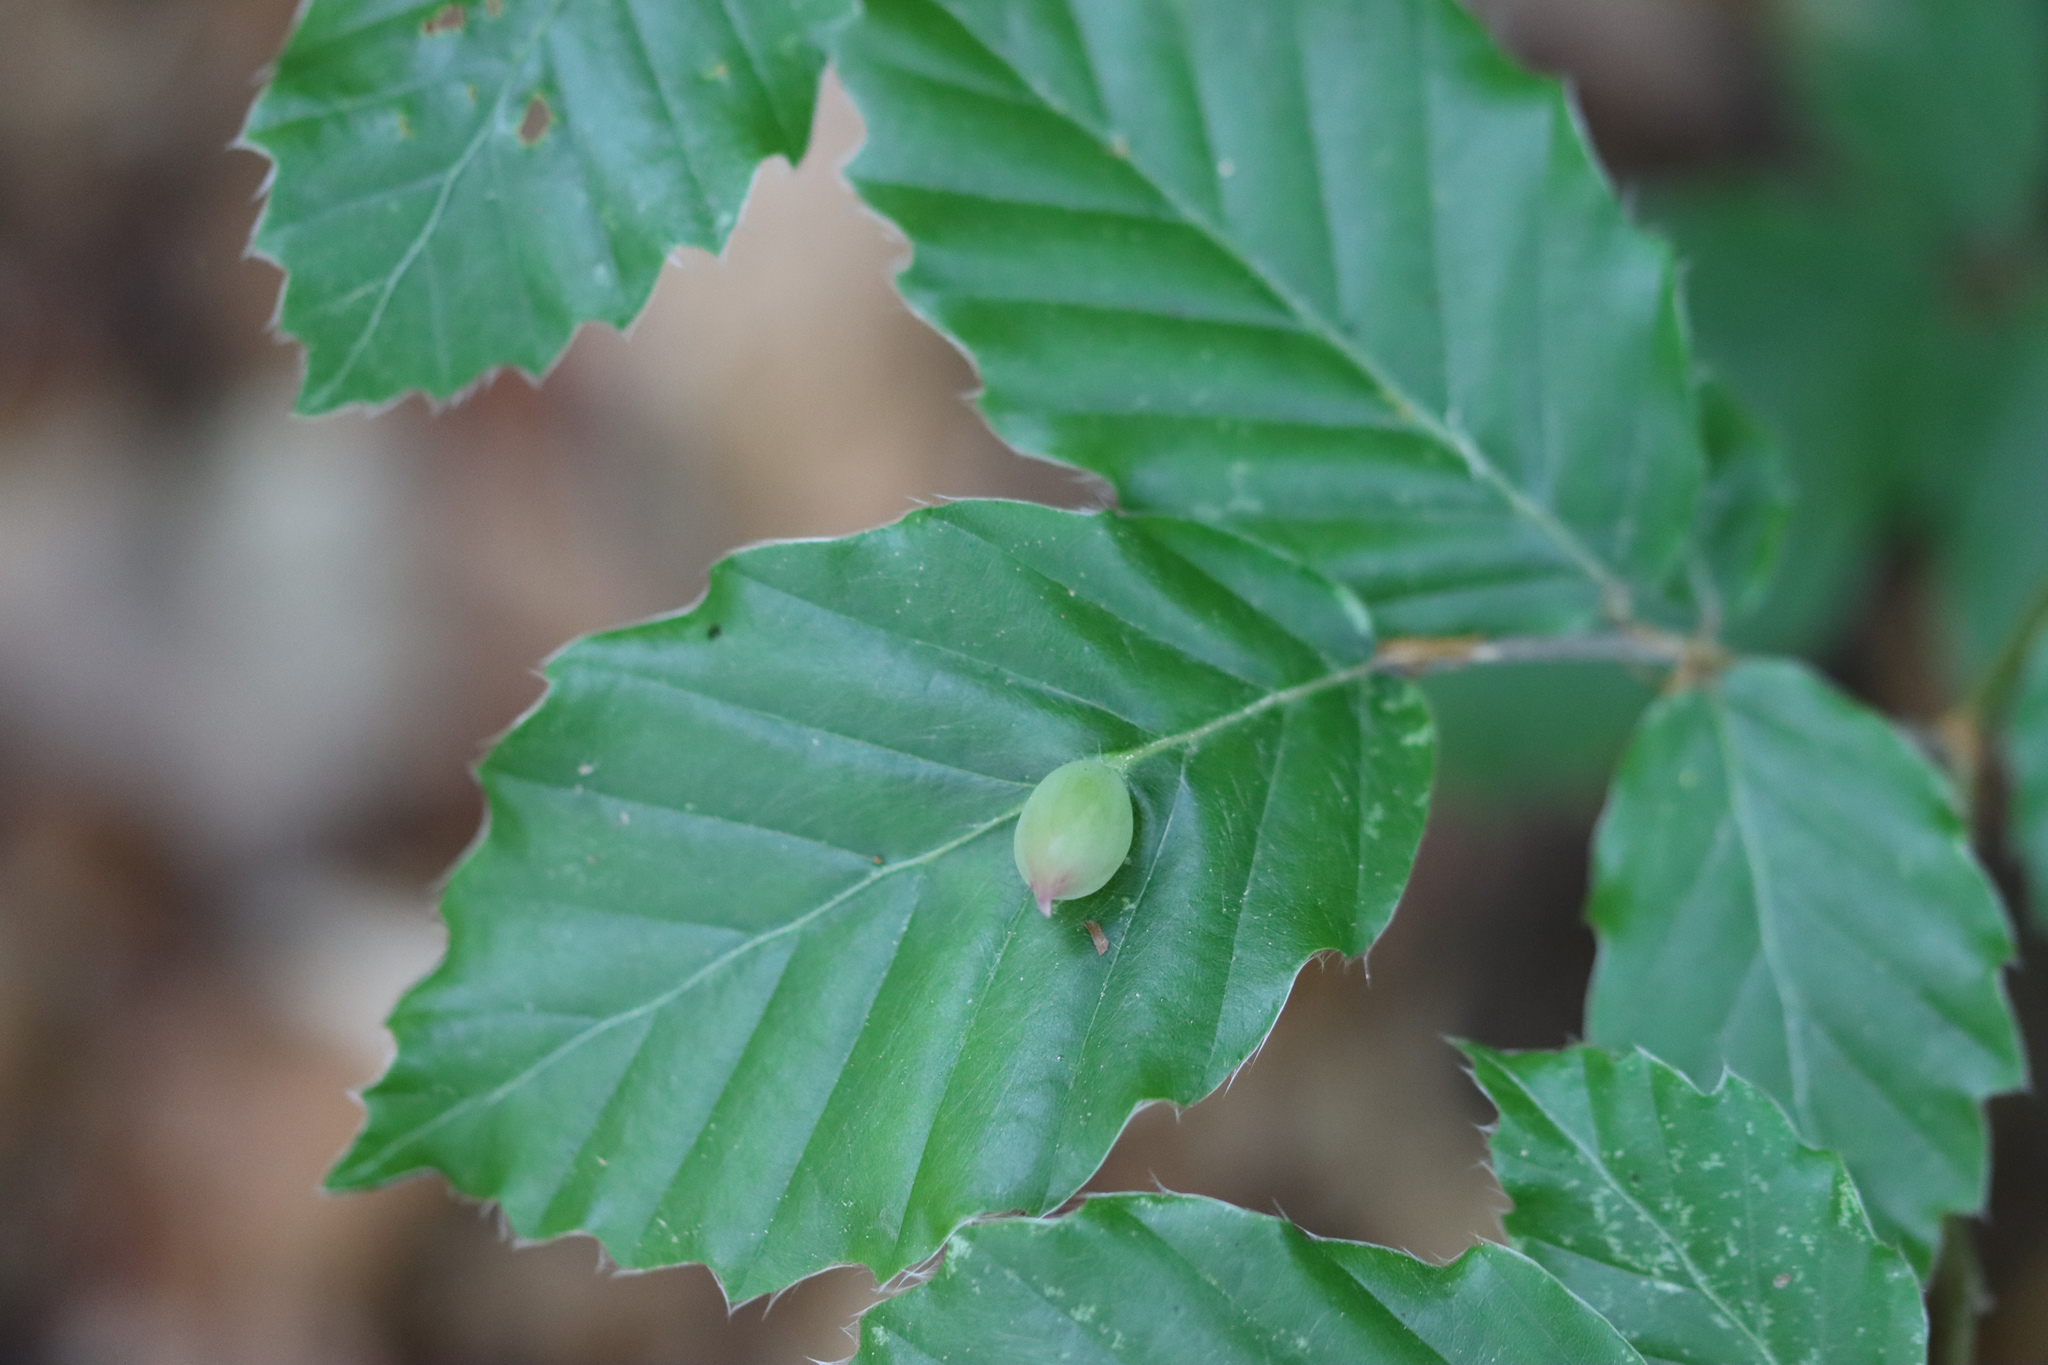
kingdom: Animalia
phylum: Arthropoda
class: Insecta
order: Diptera
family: Cecidomyiidae
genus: Mikiola
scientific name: Mikiola fagi
